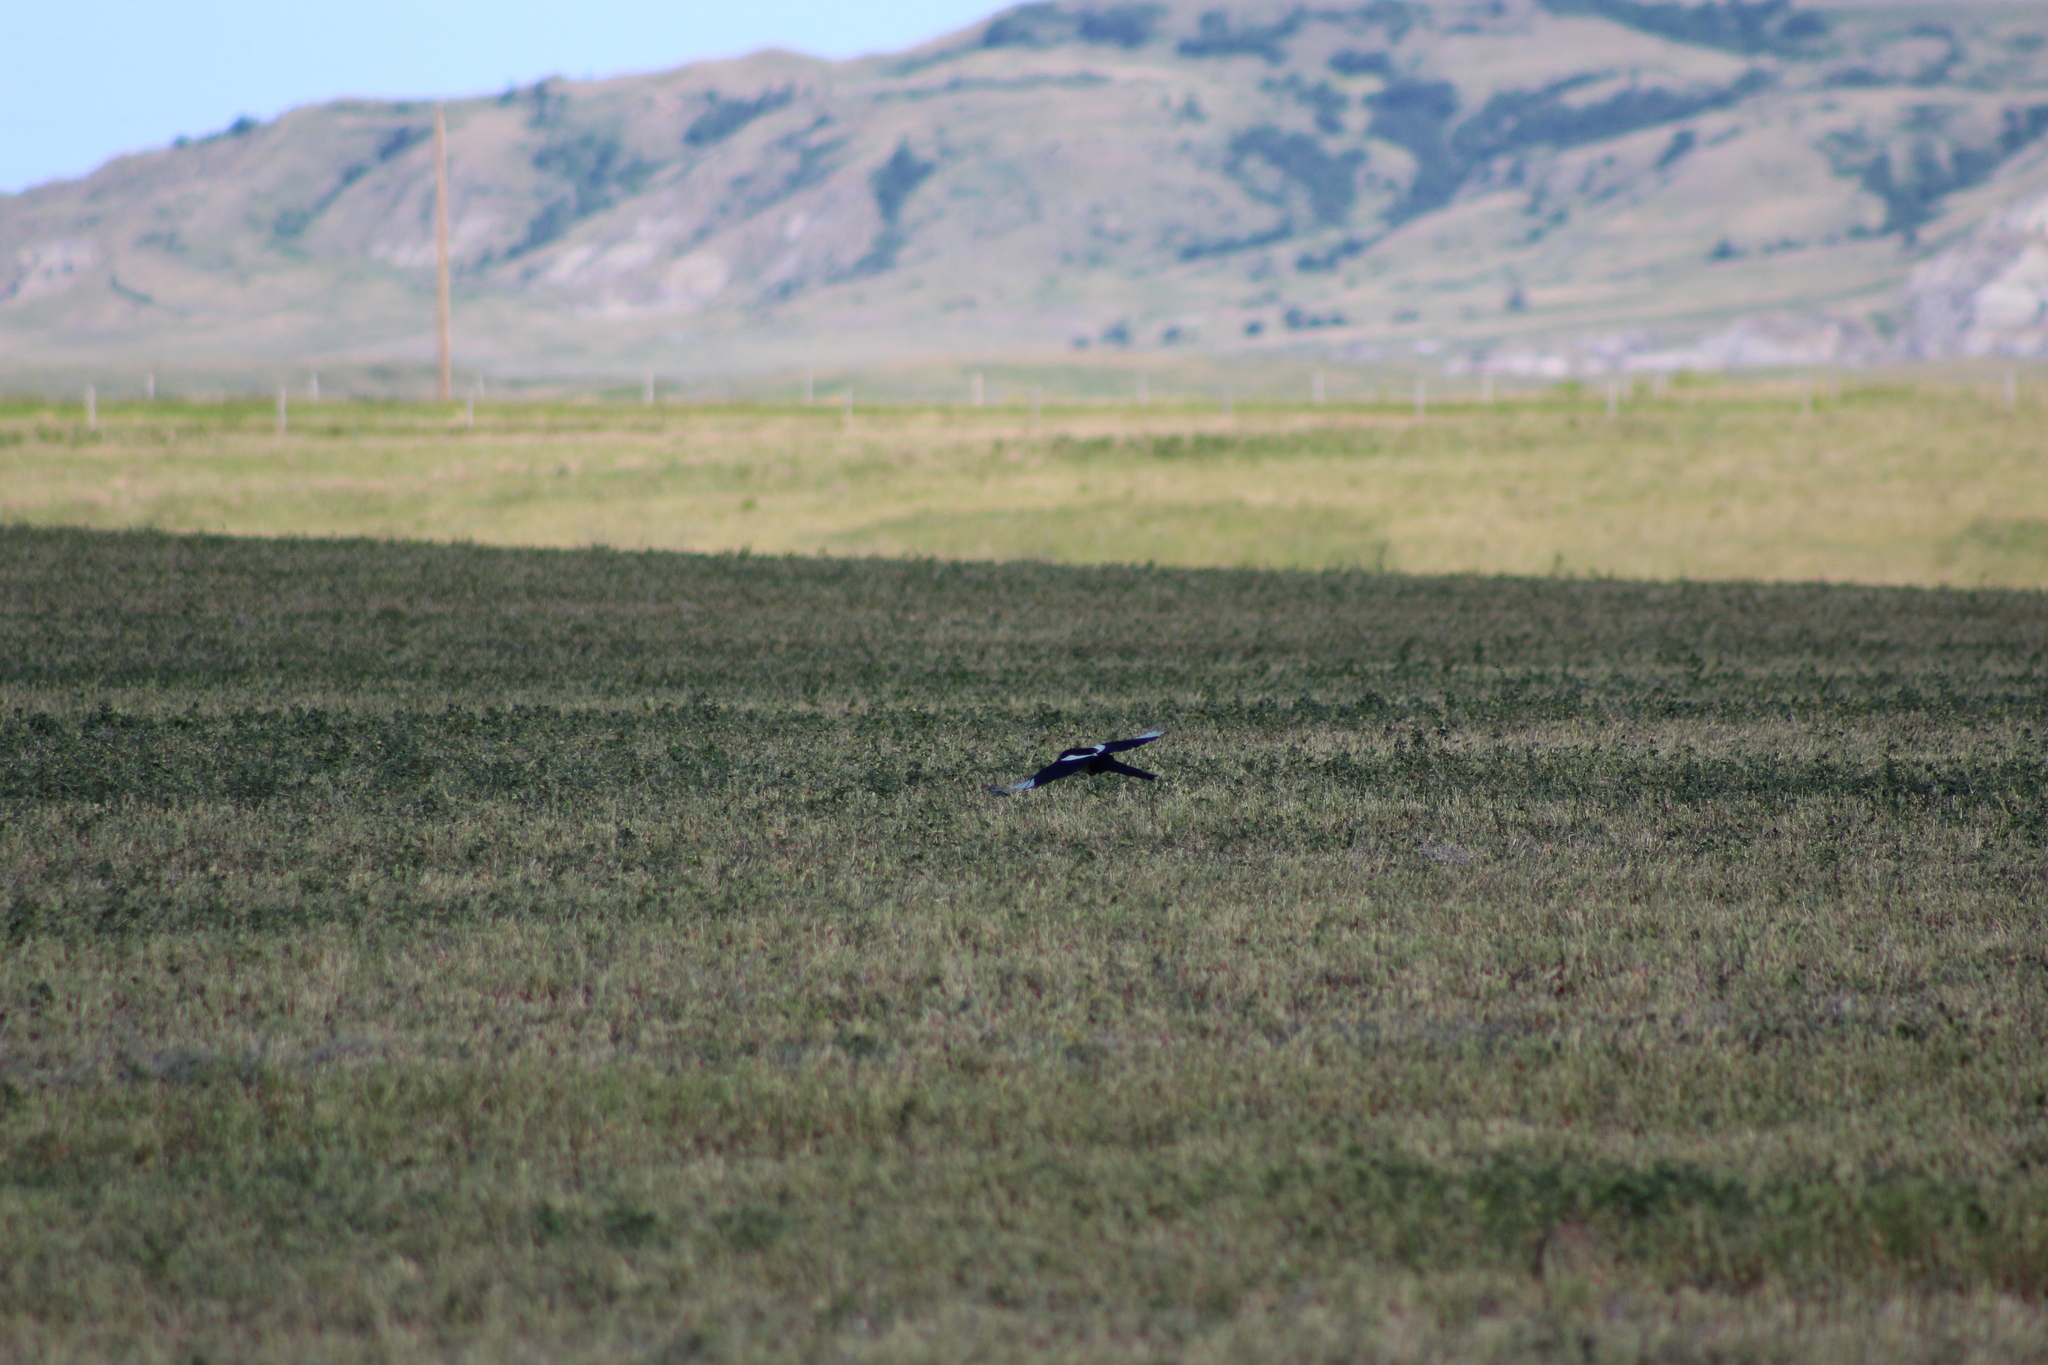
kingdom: Animalia
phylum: Chordata
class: Aves
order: Passeriformes
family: Corvidae
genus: Pica
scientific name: Pica hudsonia
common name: Black-billed magpie
